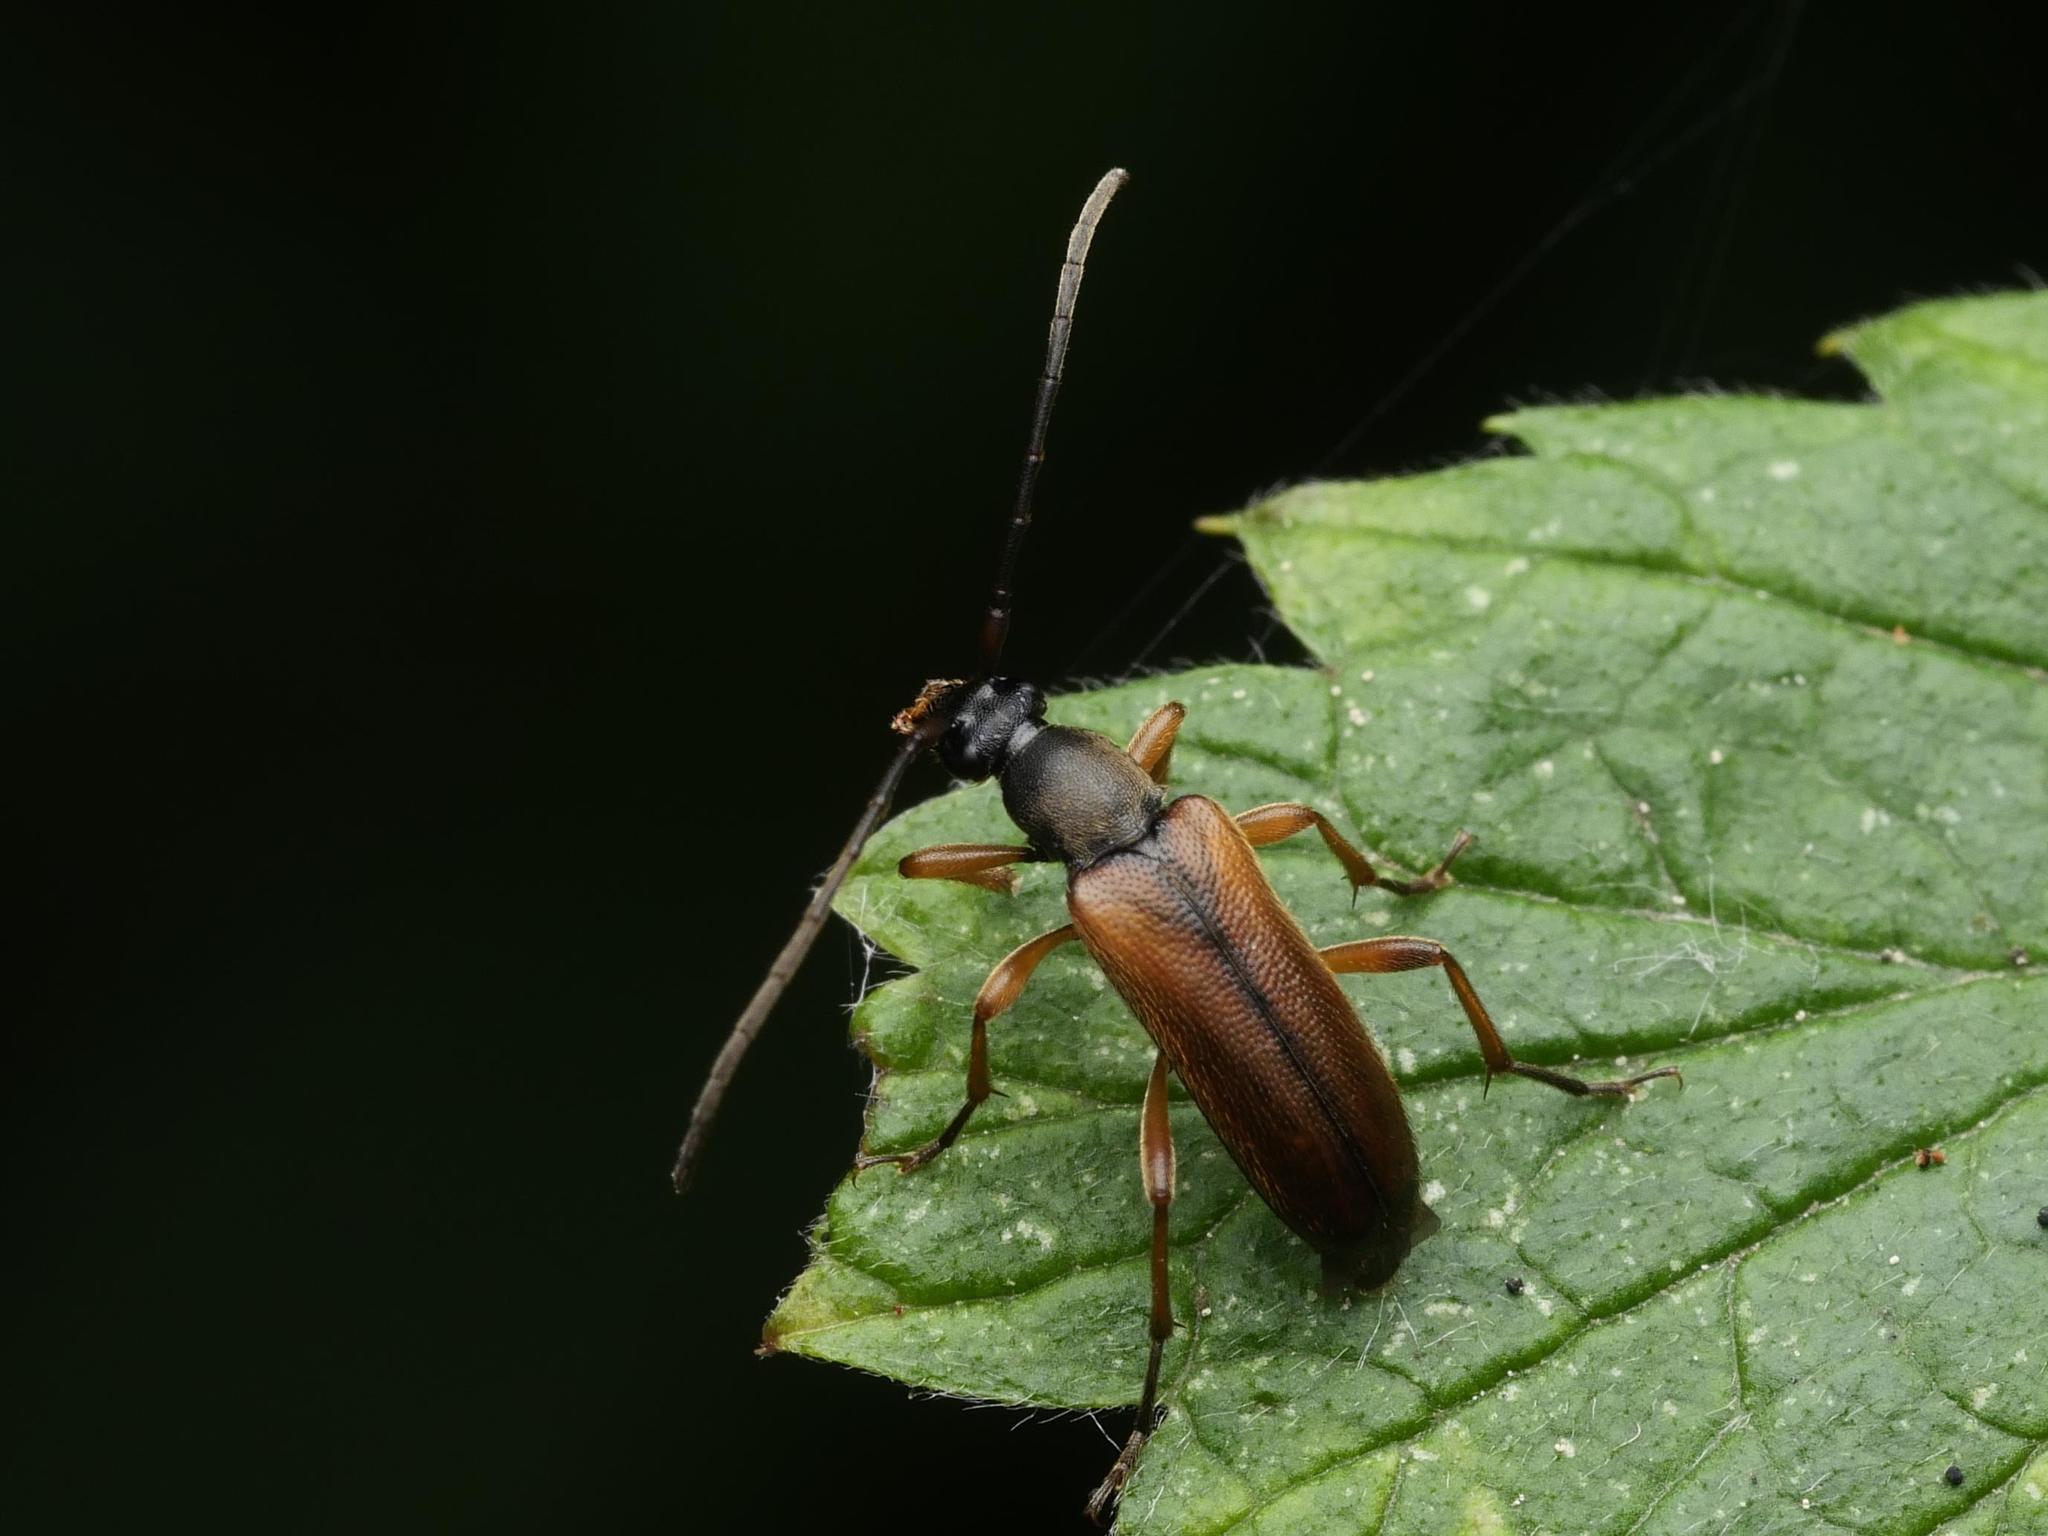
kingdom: Animalia
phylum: Arthropoda
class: Insecta
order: Coleoptera
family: Cerambycidae
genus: Alosterna
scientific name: Alosterna tabacicolor
